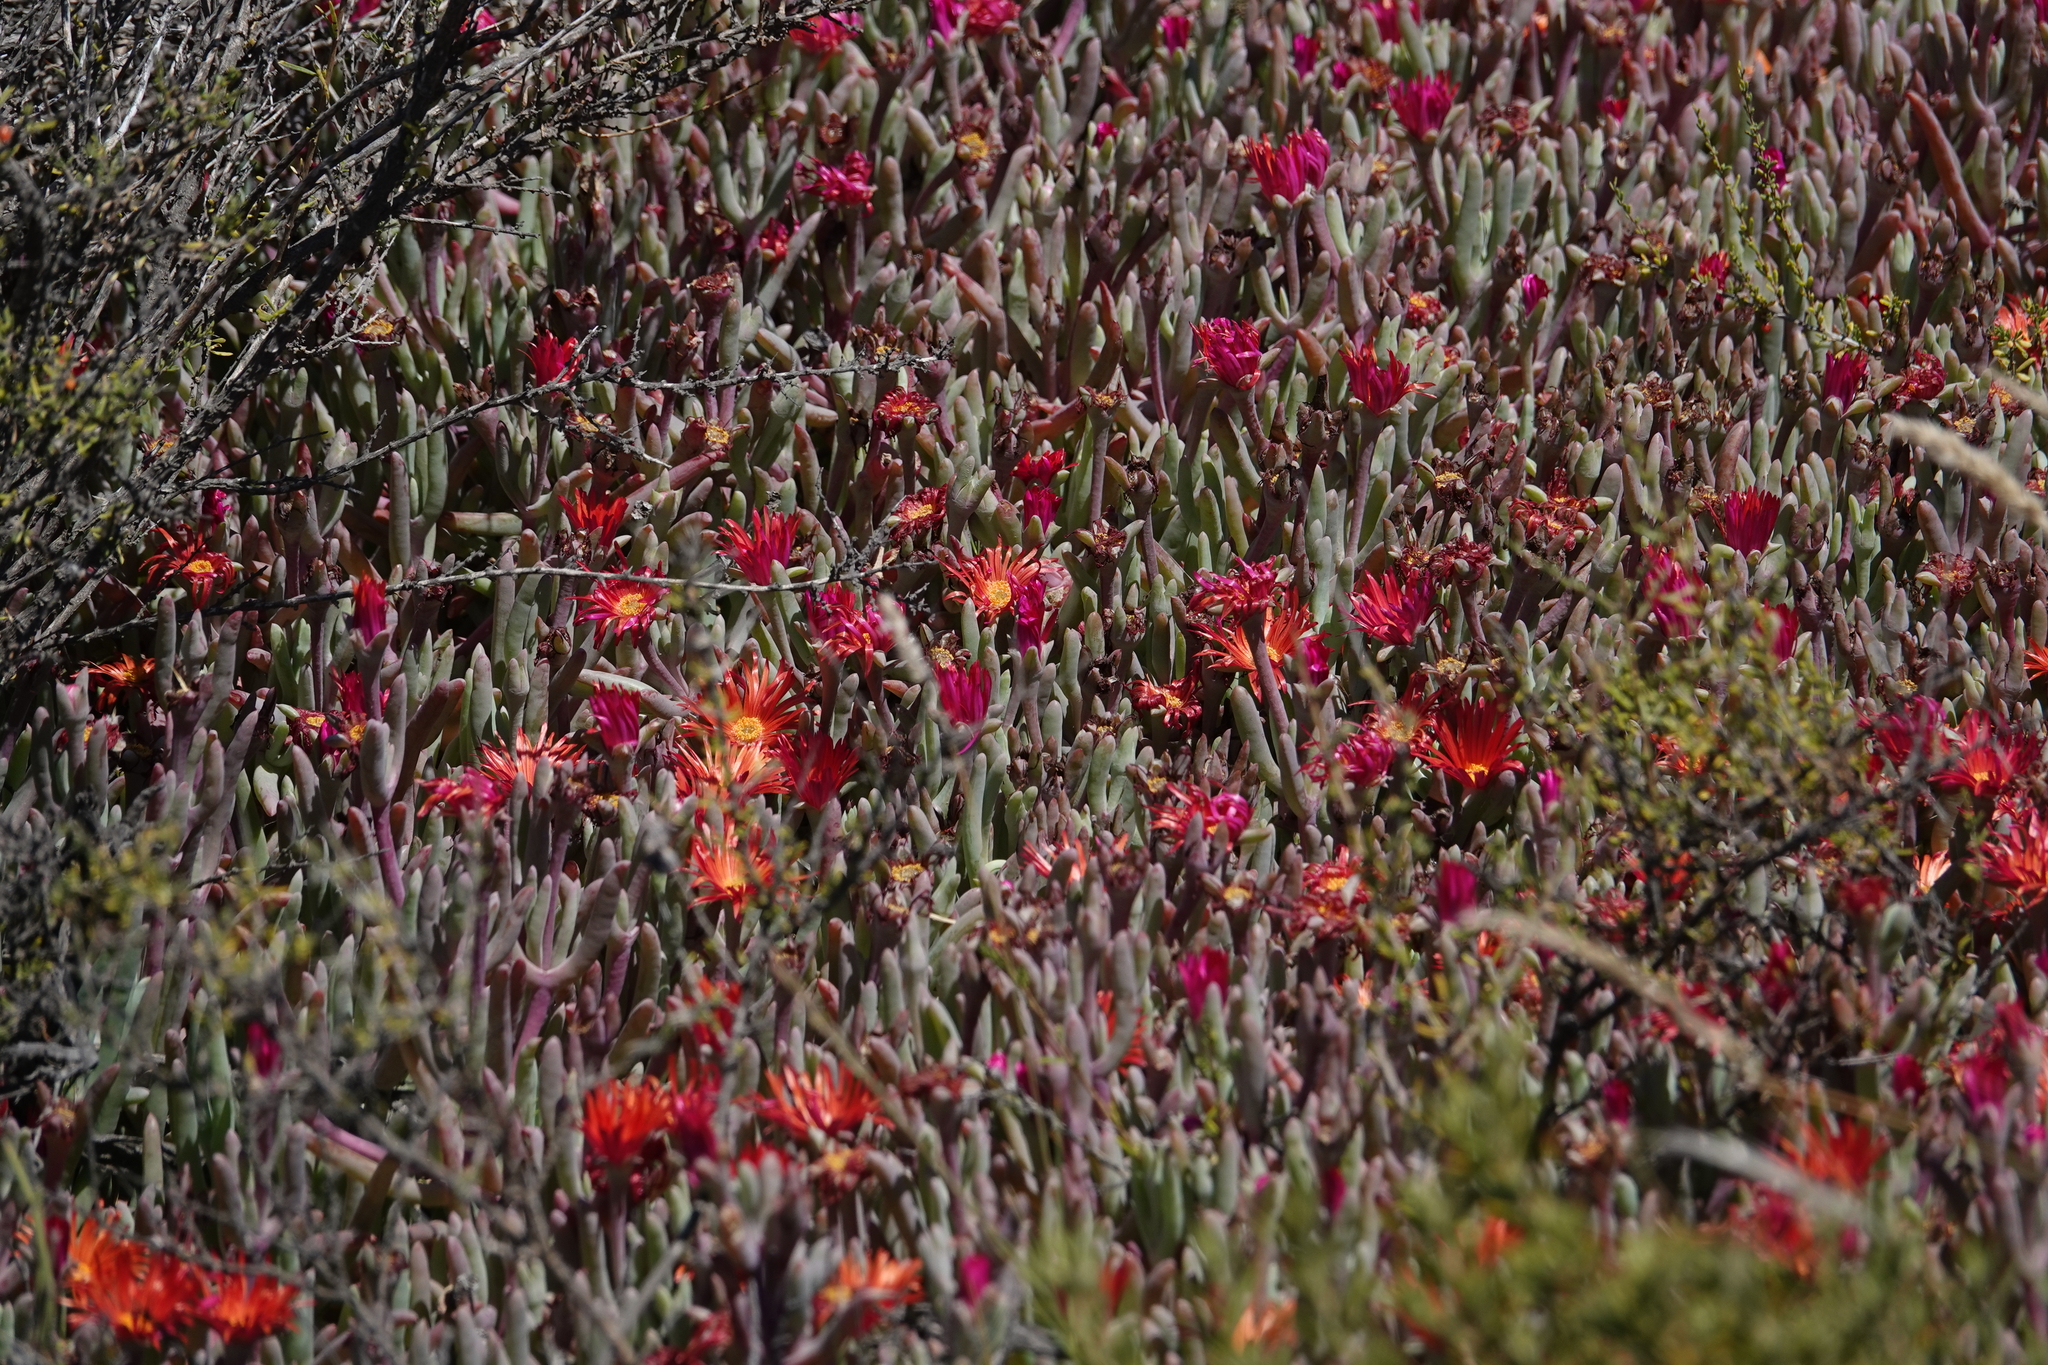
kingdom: Plantae
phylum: Tracheophyta
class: Magnoliopsida
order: Caryophyllales
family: Aizoaceae
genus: Malephora
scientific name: Malephora purpureocrocea
